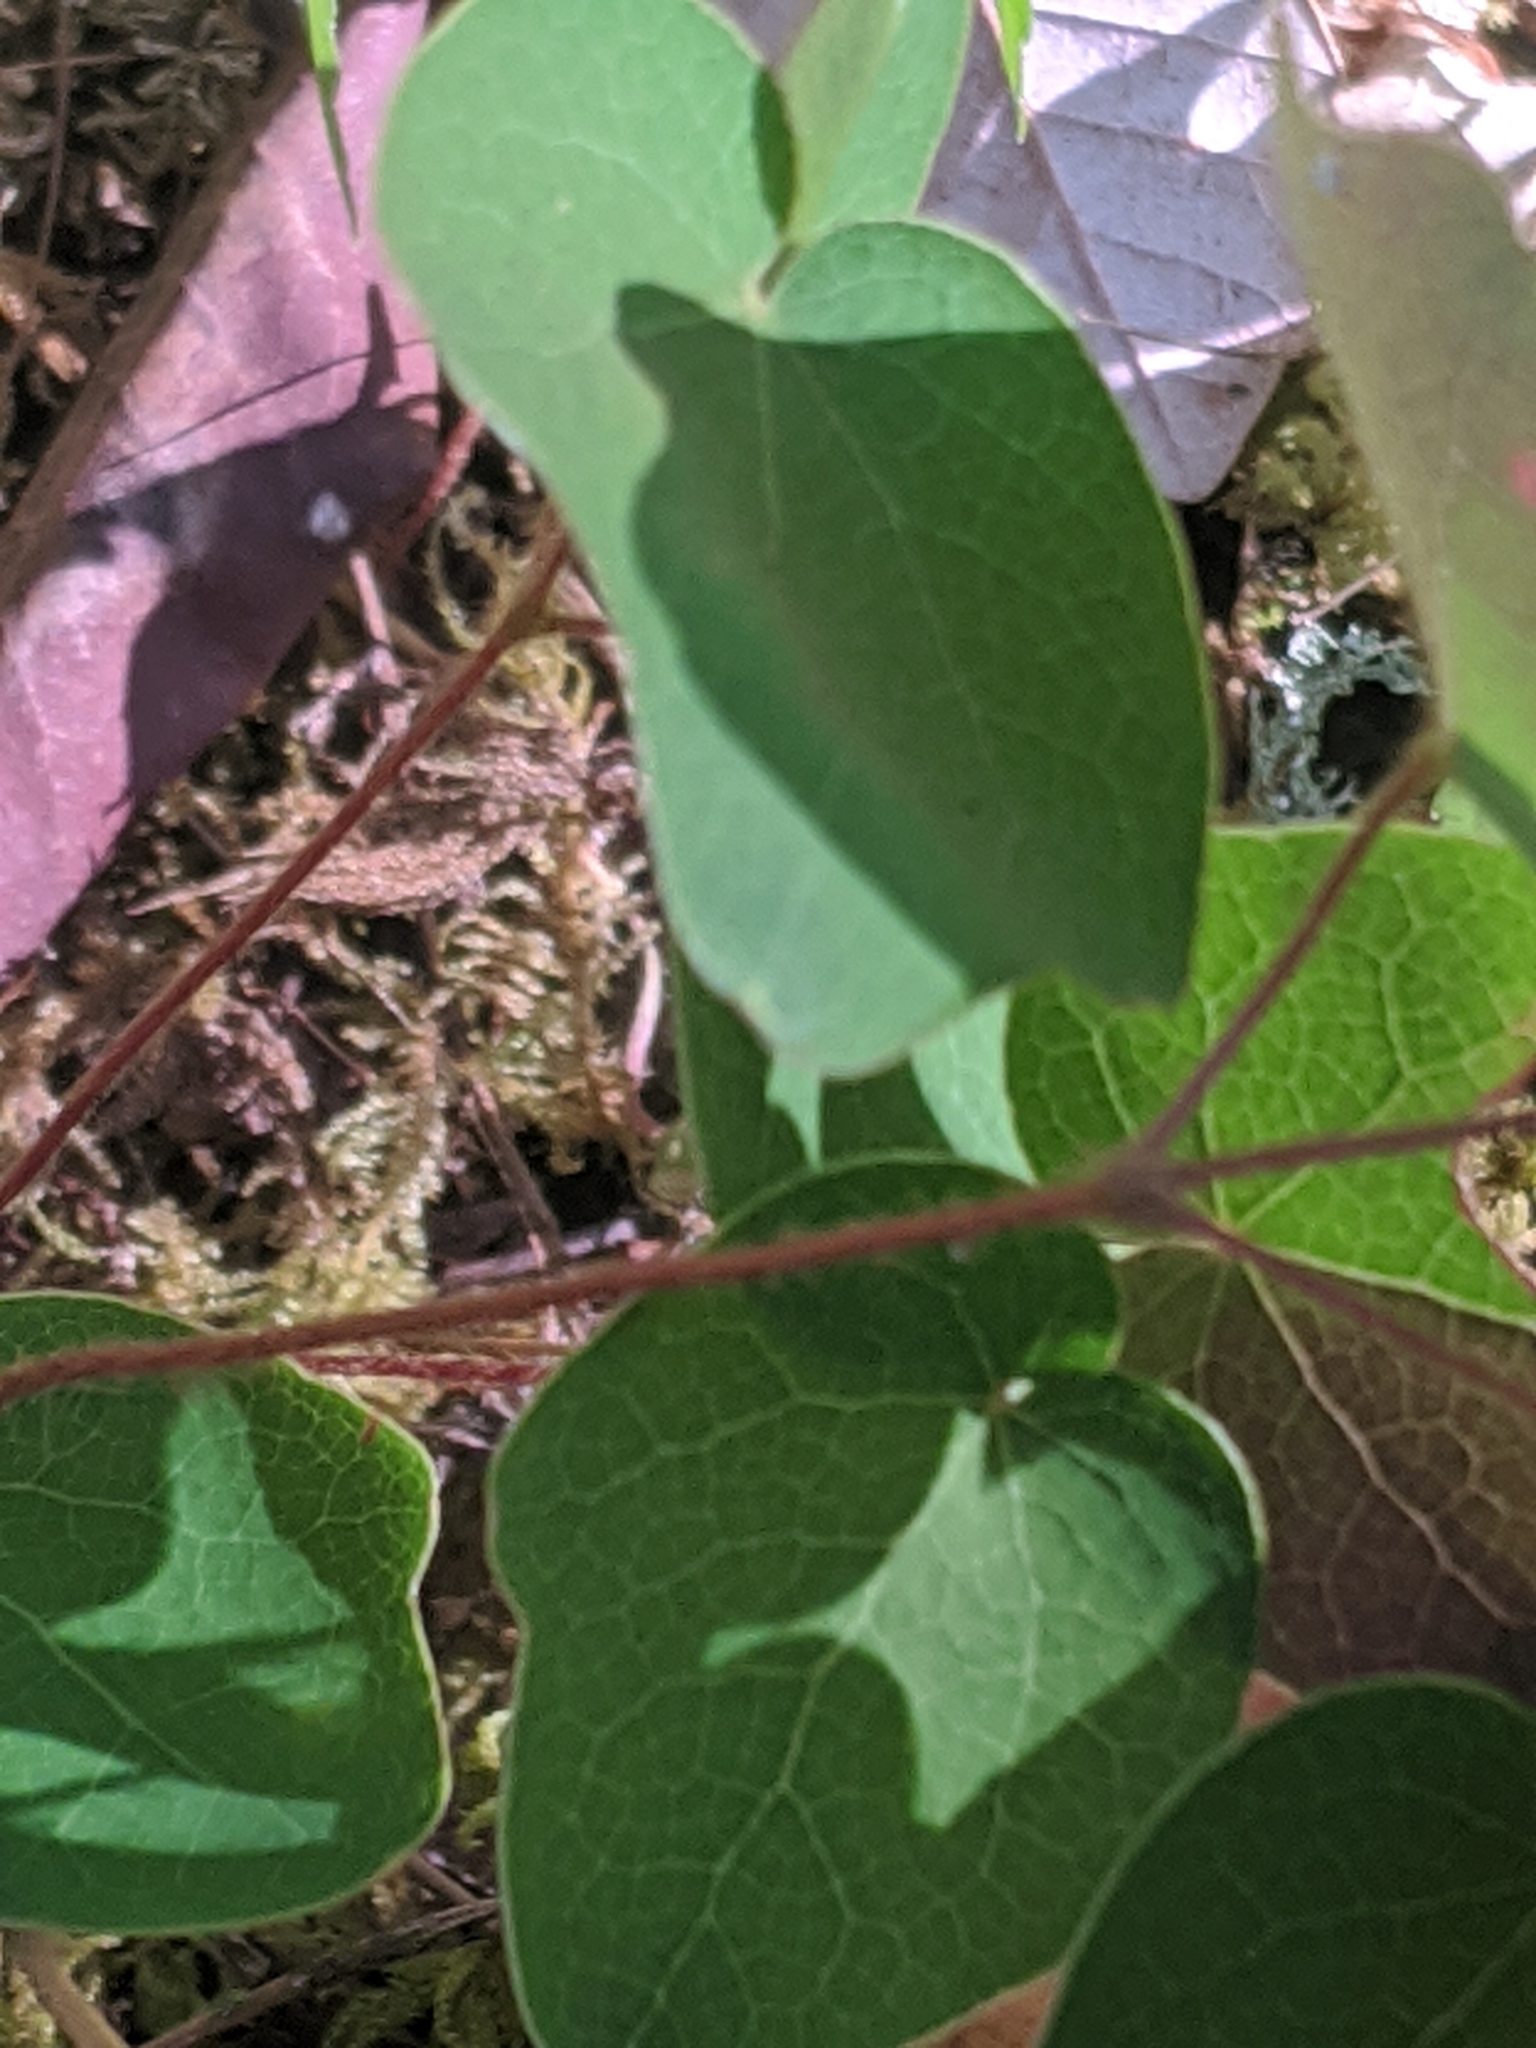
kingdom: Plantae
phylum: Tracheophyta
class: Magnoliopsida
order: Ranunculales
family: Berberidaceae
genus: Vancouveria
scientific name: Vancouveria chrysantha
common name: Siskiyou inside-out-flower
